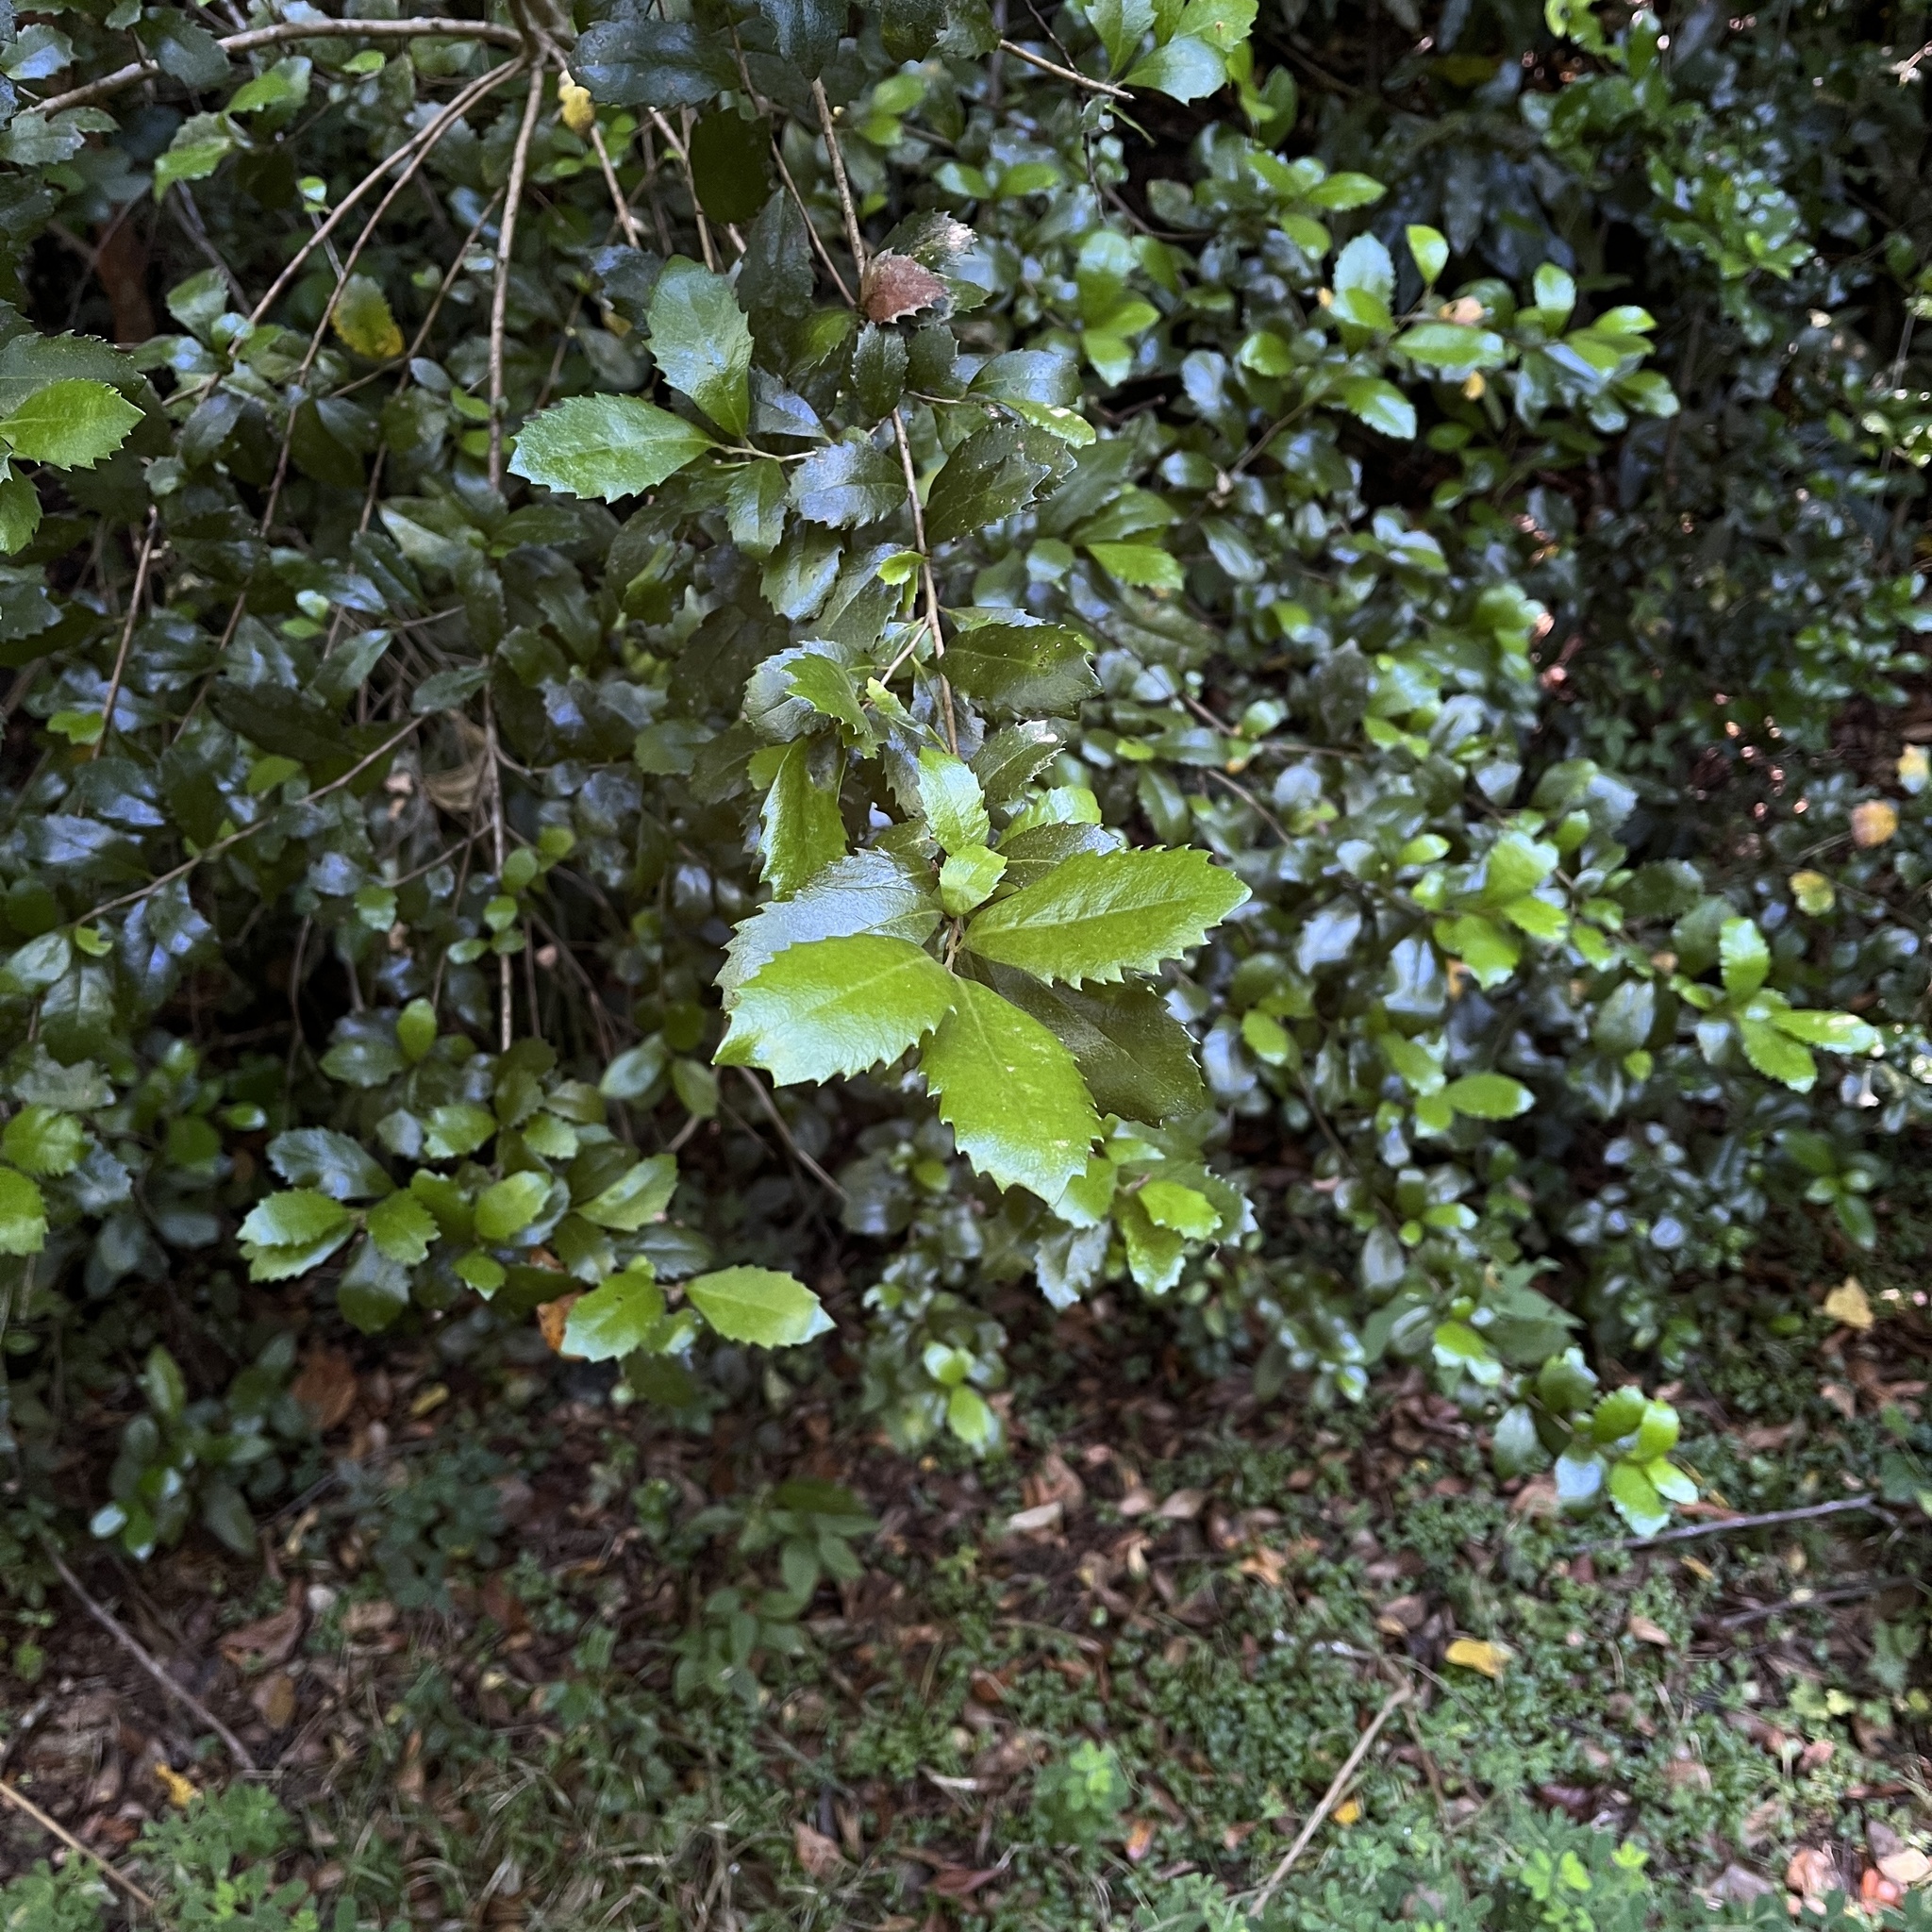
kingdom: Plantae
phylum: Tracheophyta
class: Magnoliopsida
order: Proteales
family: Proteaceae
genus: Lomatia
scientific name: Lomatia dentata
